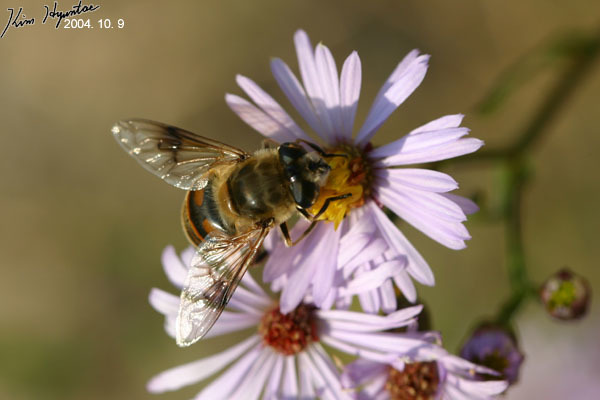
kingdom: Animalia
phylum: Arthropoda
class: Insecta
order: Diptera
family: Syrphidae
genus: Eristalis
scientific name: Eristalis tenax
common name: Drone fly
